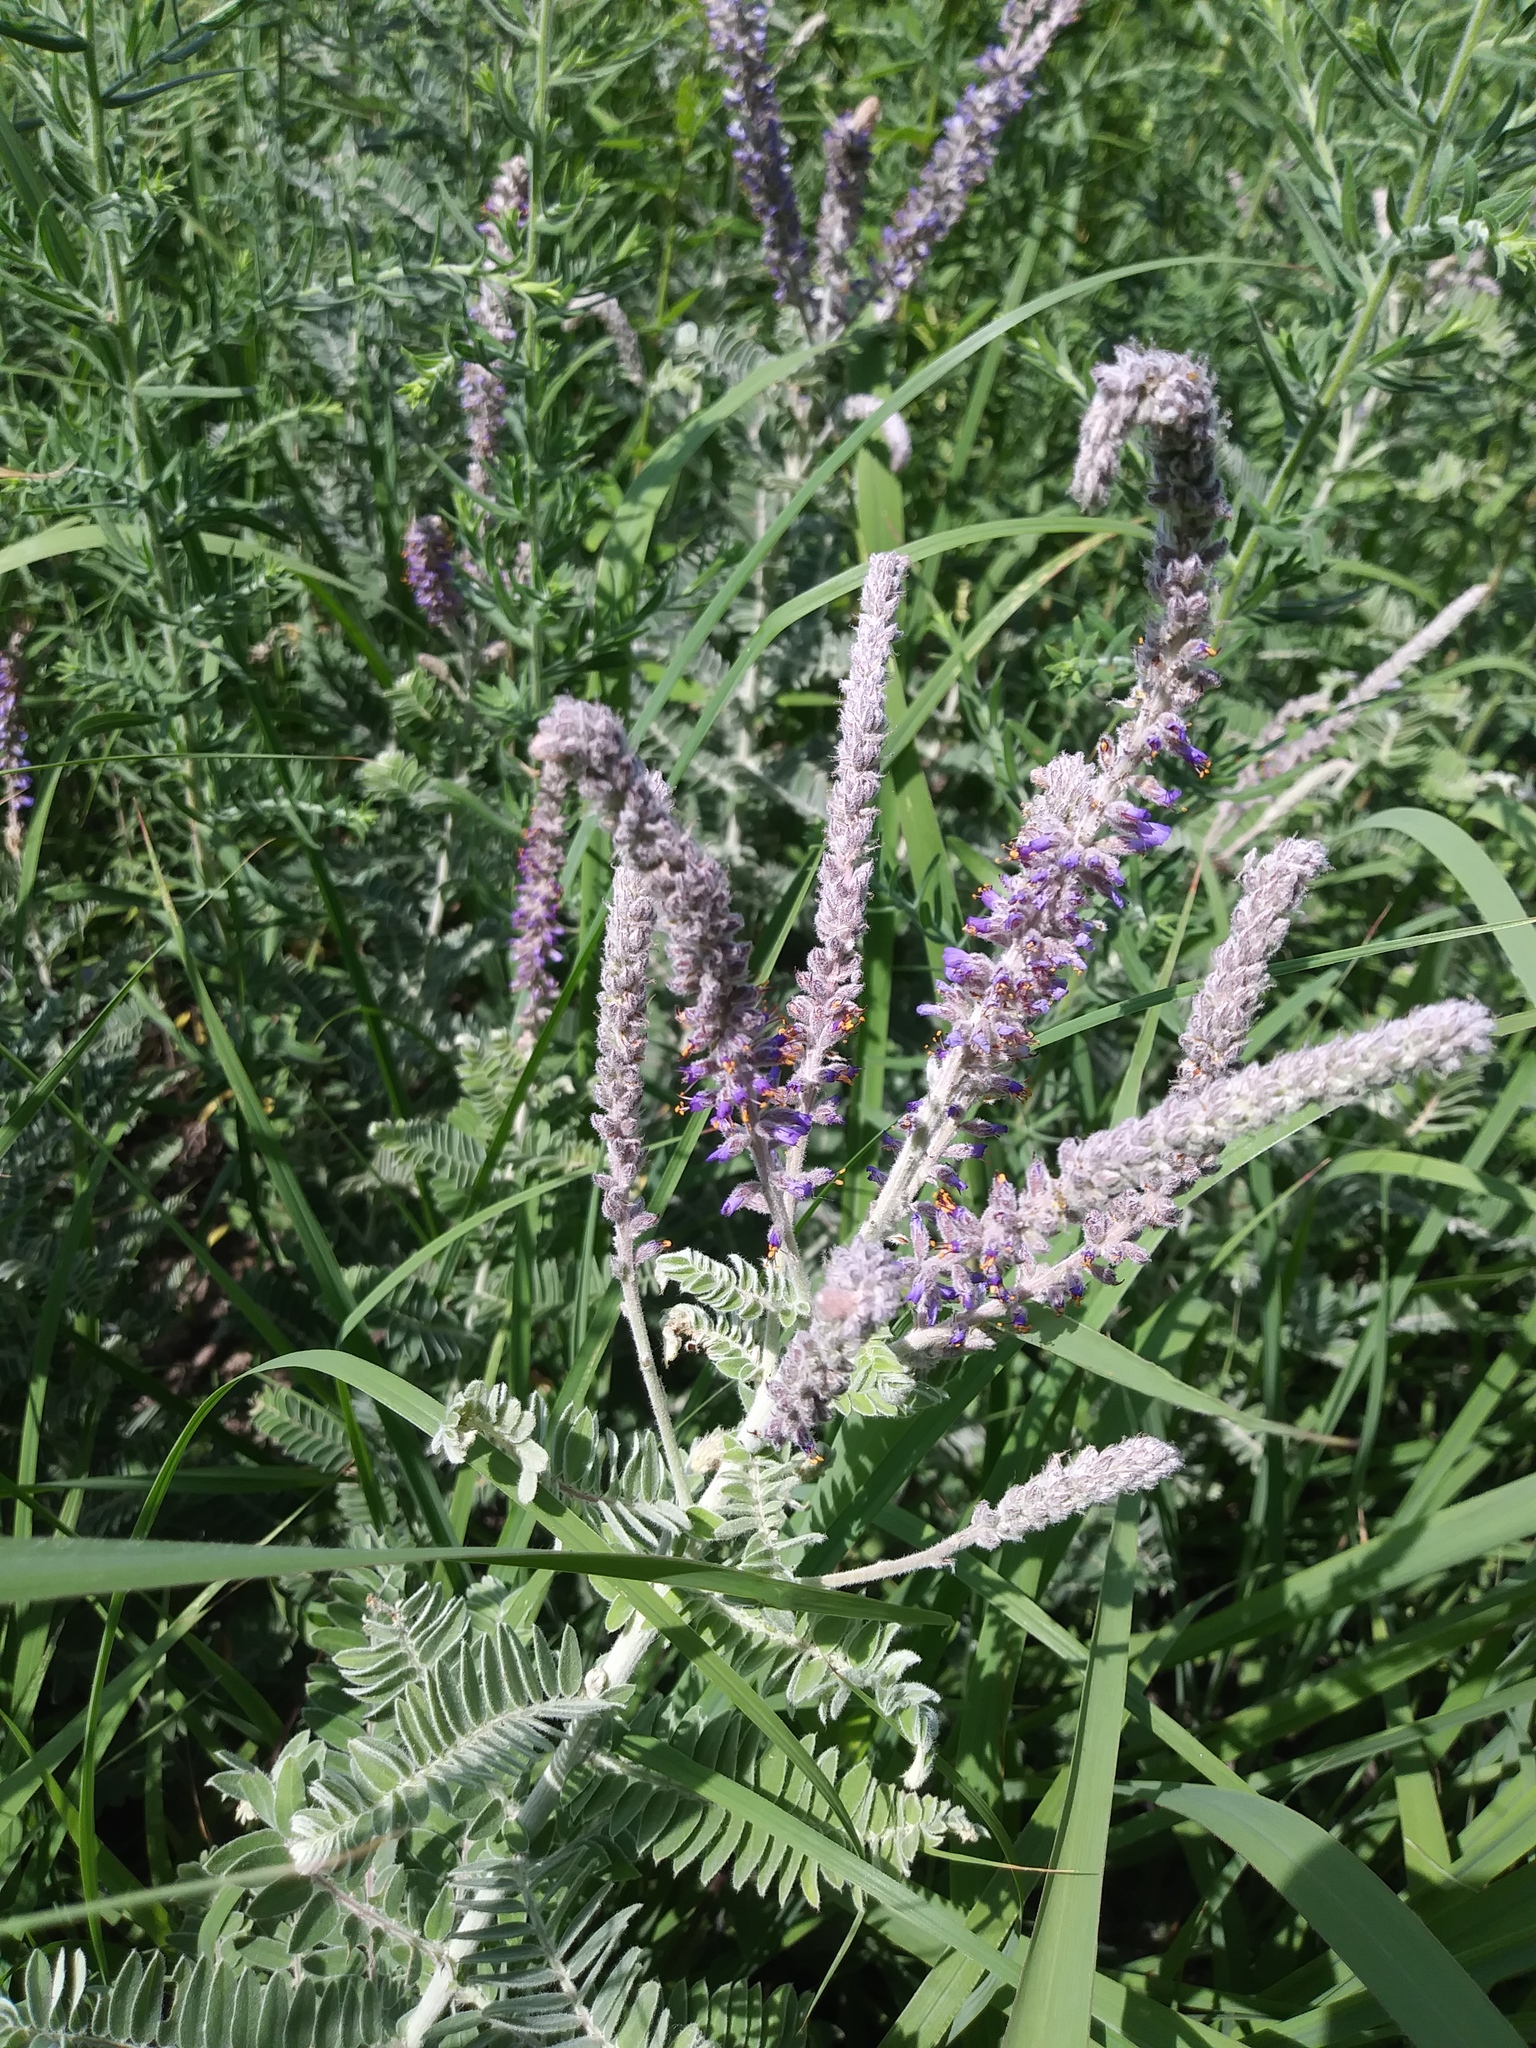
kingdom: Plantae
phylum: Tracheophyta
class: Magnoliopsida
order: Fabales
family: Fabaceae
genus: Amorpha
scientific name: Amorpha canescens
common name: Leadplant
